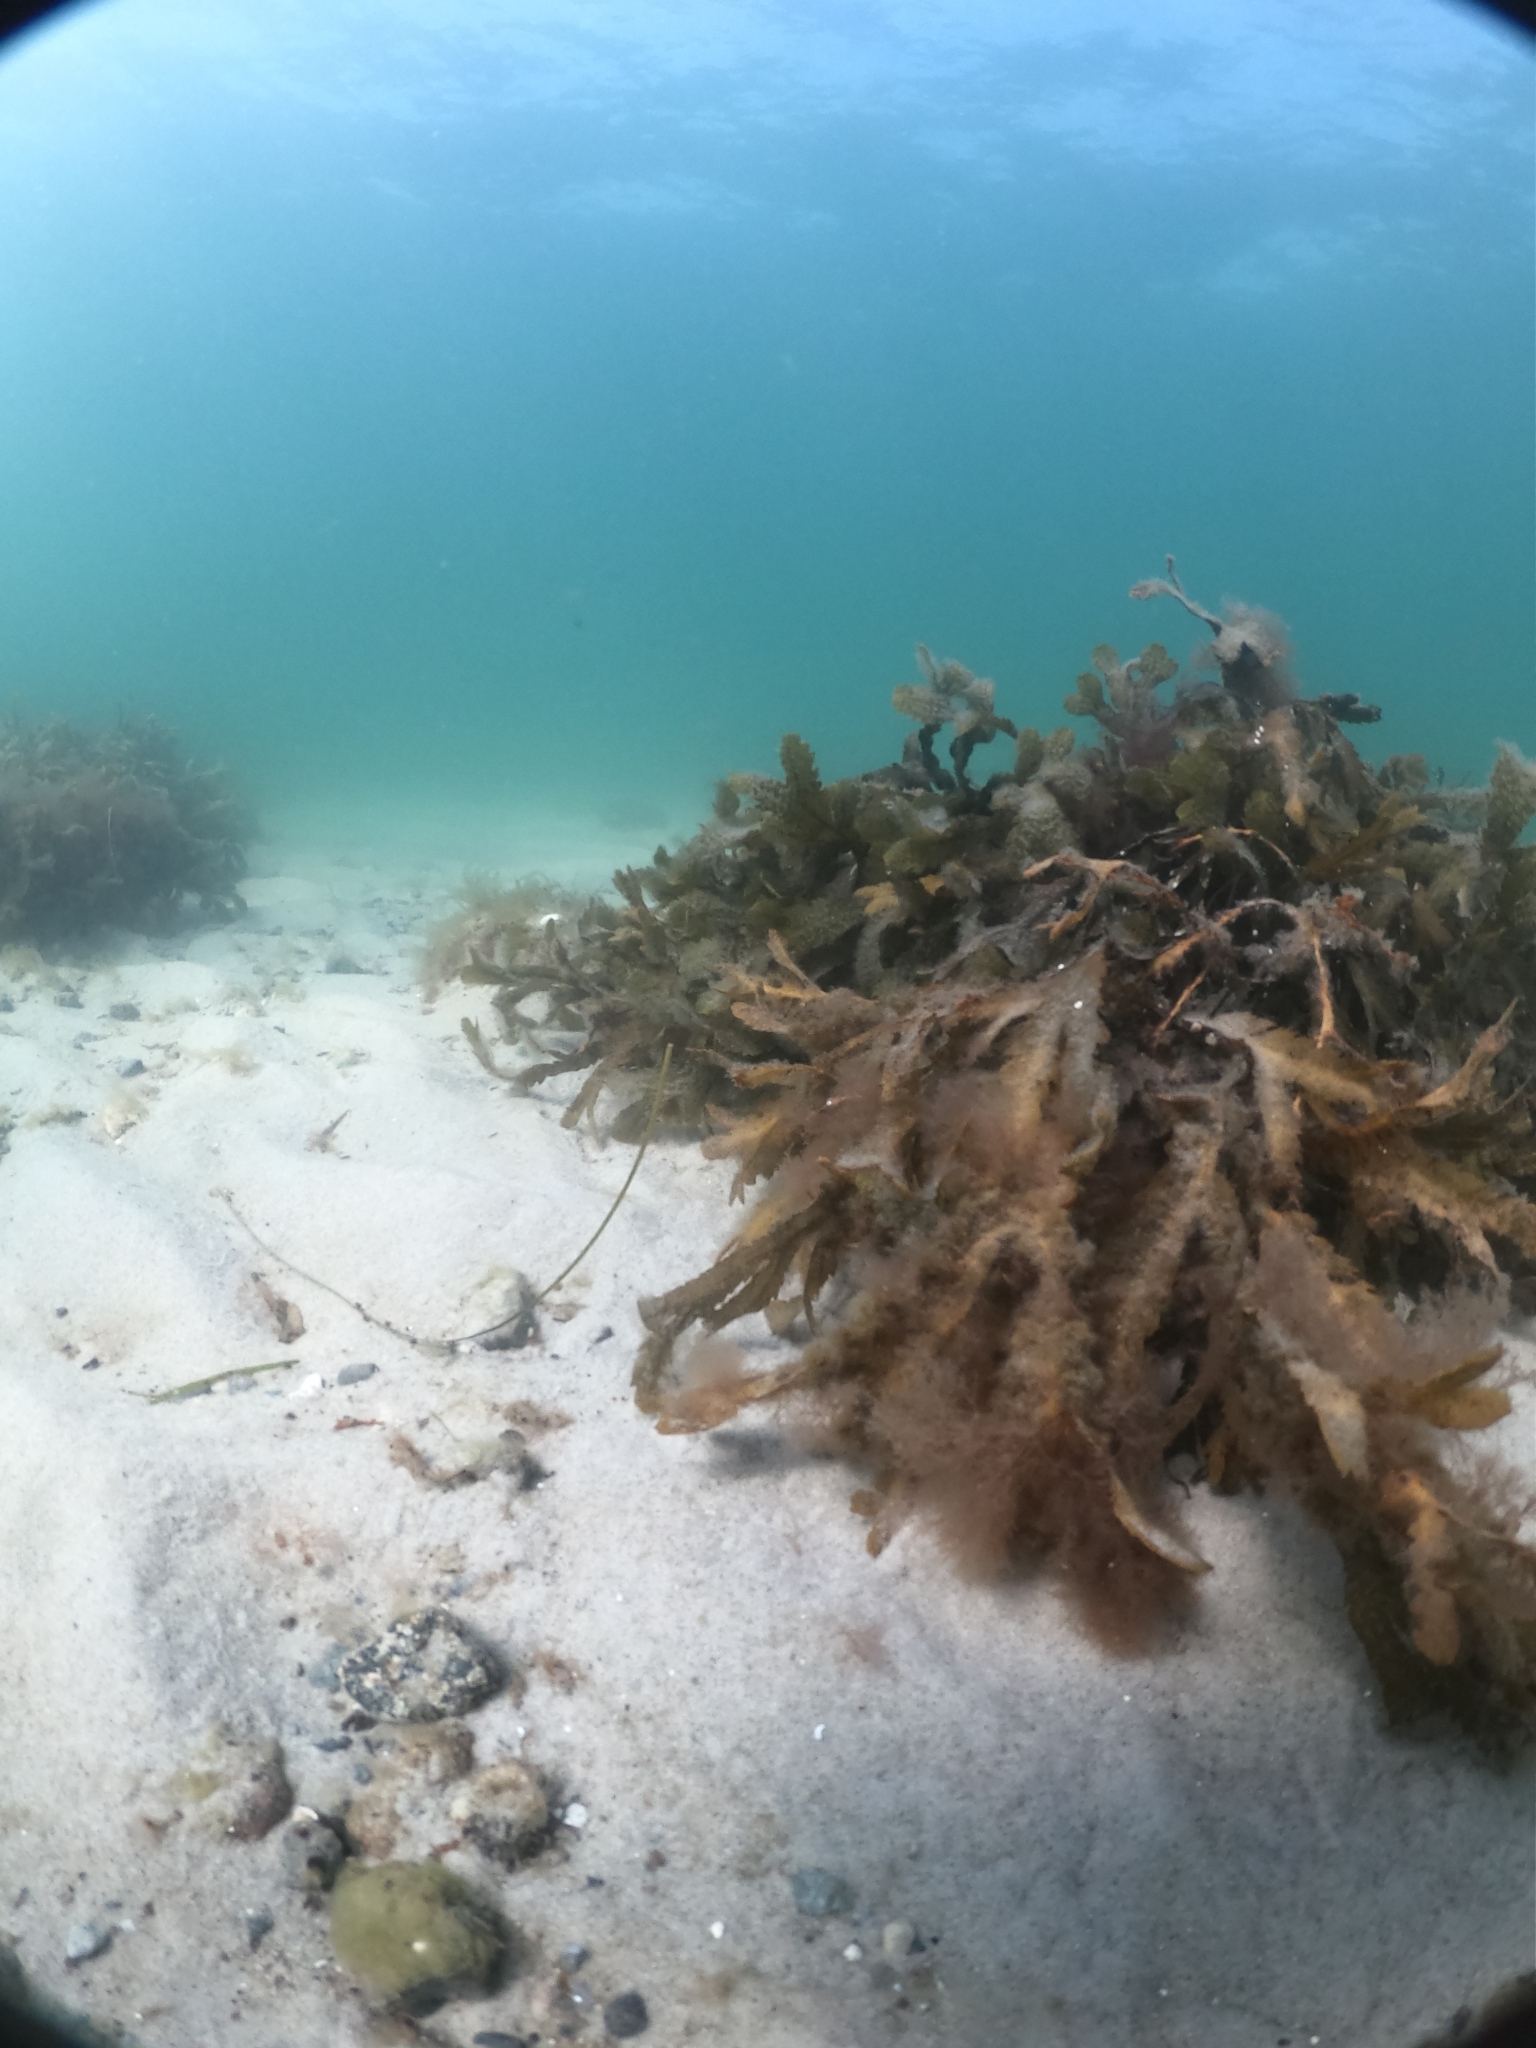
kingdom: Chromista
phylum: Ochrophyta
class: Phaeophyceae
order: Fucales
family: Fucaceae
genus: Fucus
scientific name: Fucus serratus
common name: Toothed wrack
